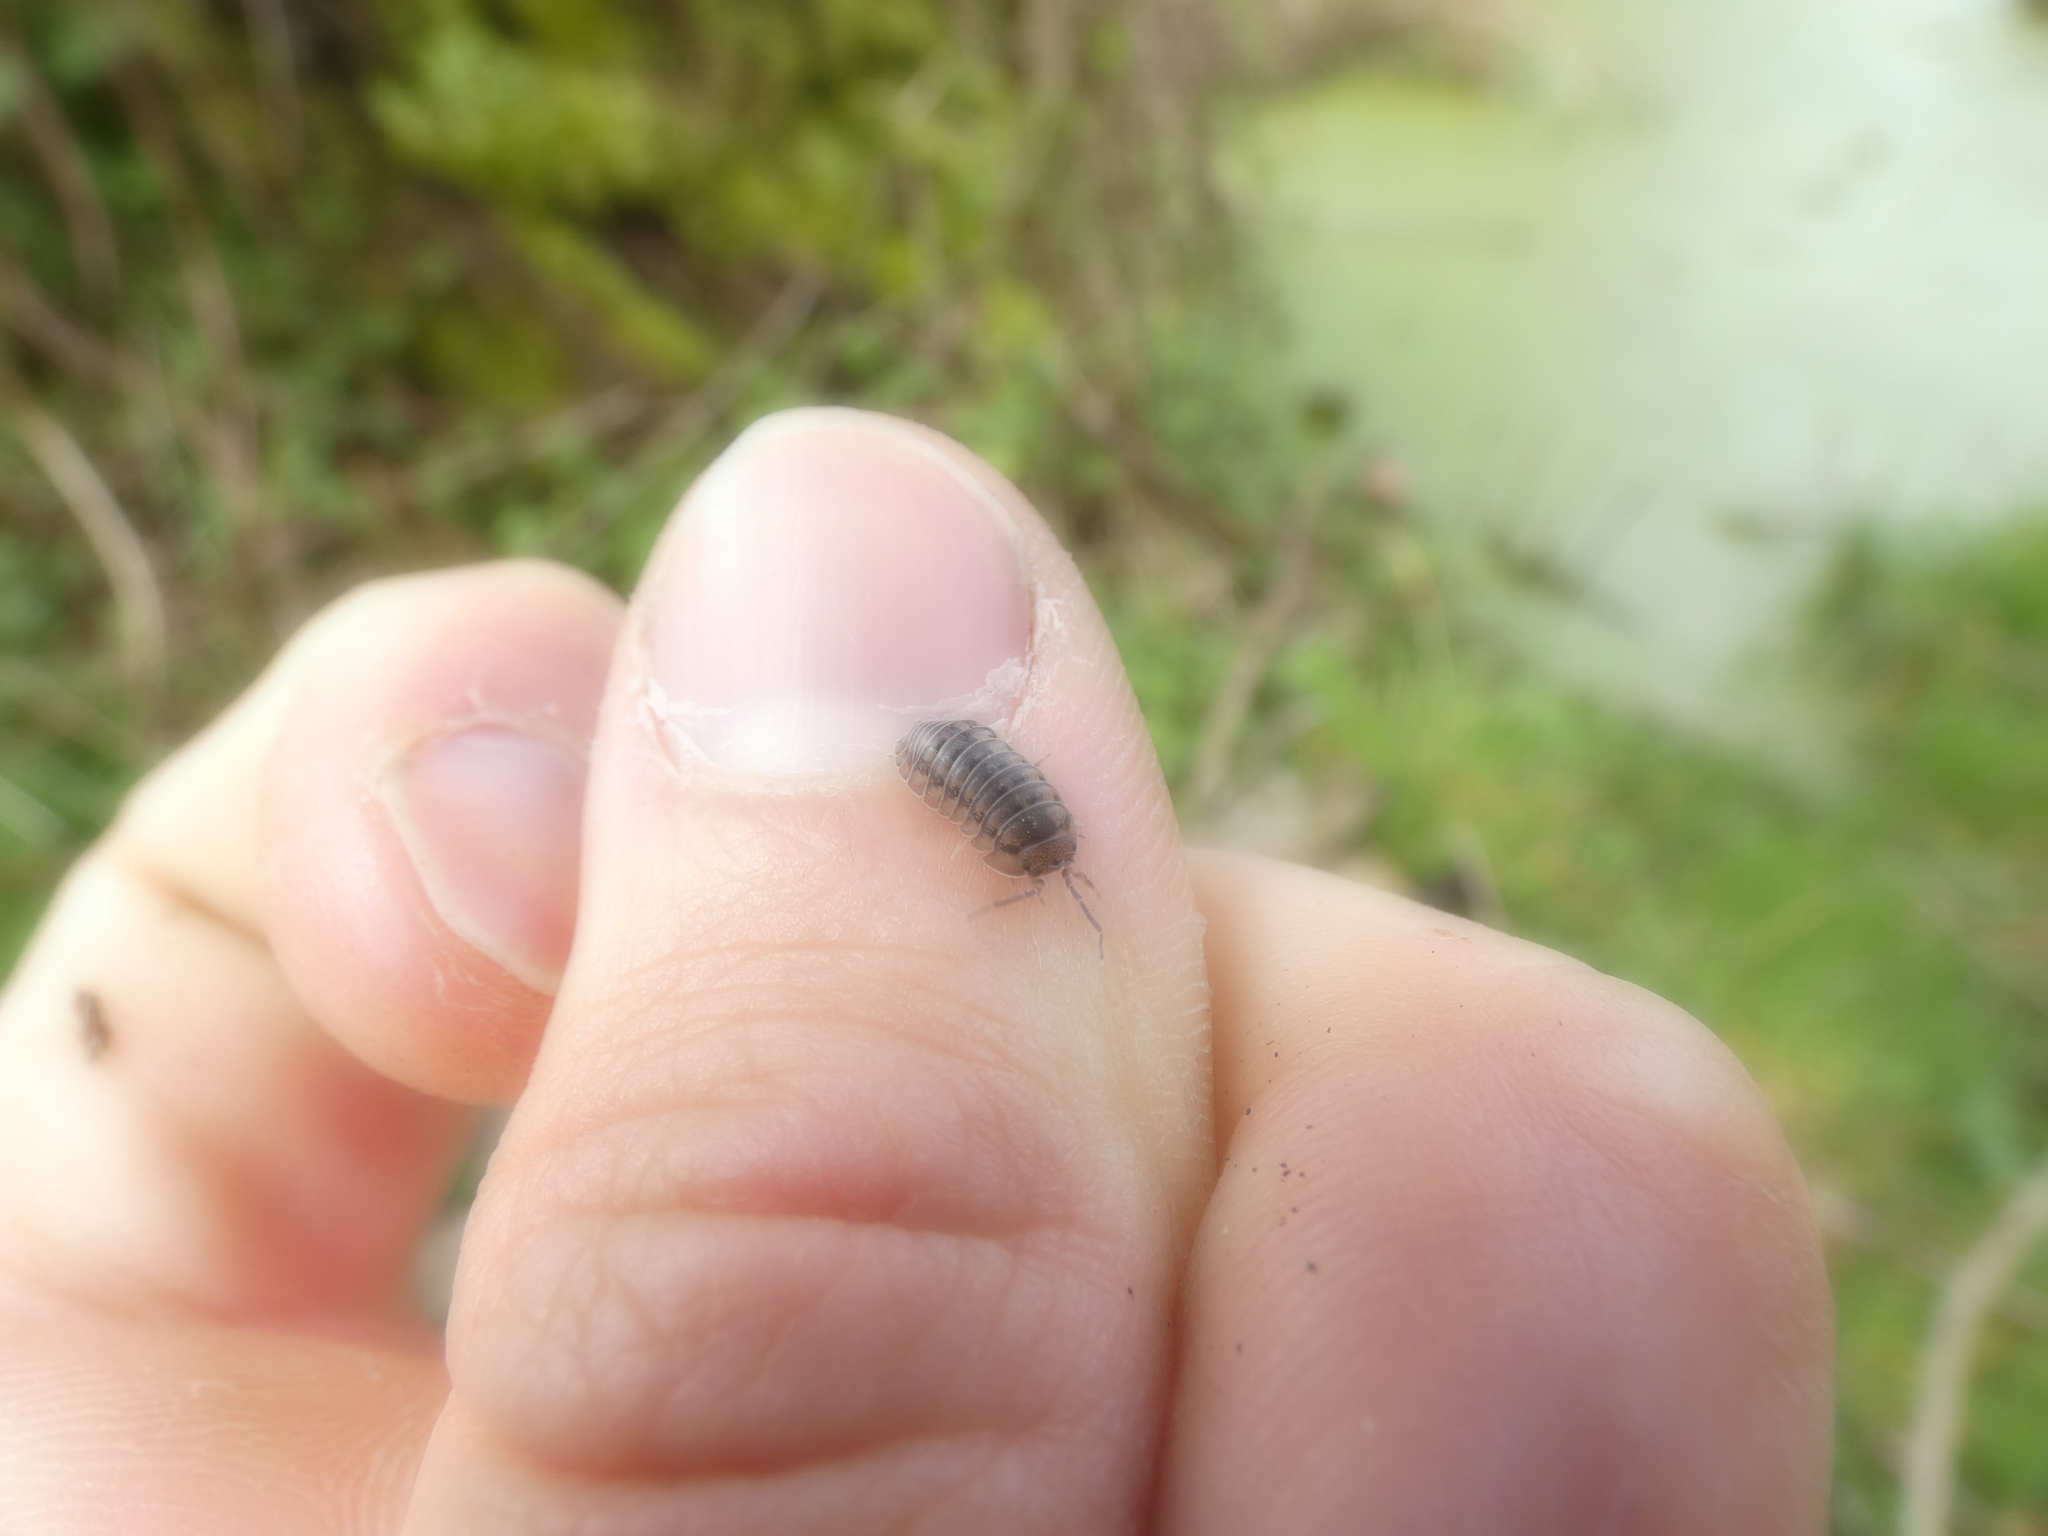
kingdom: Animalia
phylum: Arthropoda
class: Malacostraca
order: Isopoda
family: Armadillidiidae
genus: Armadillidium
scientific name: Armadillidium nasatum
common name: Isopod
